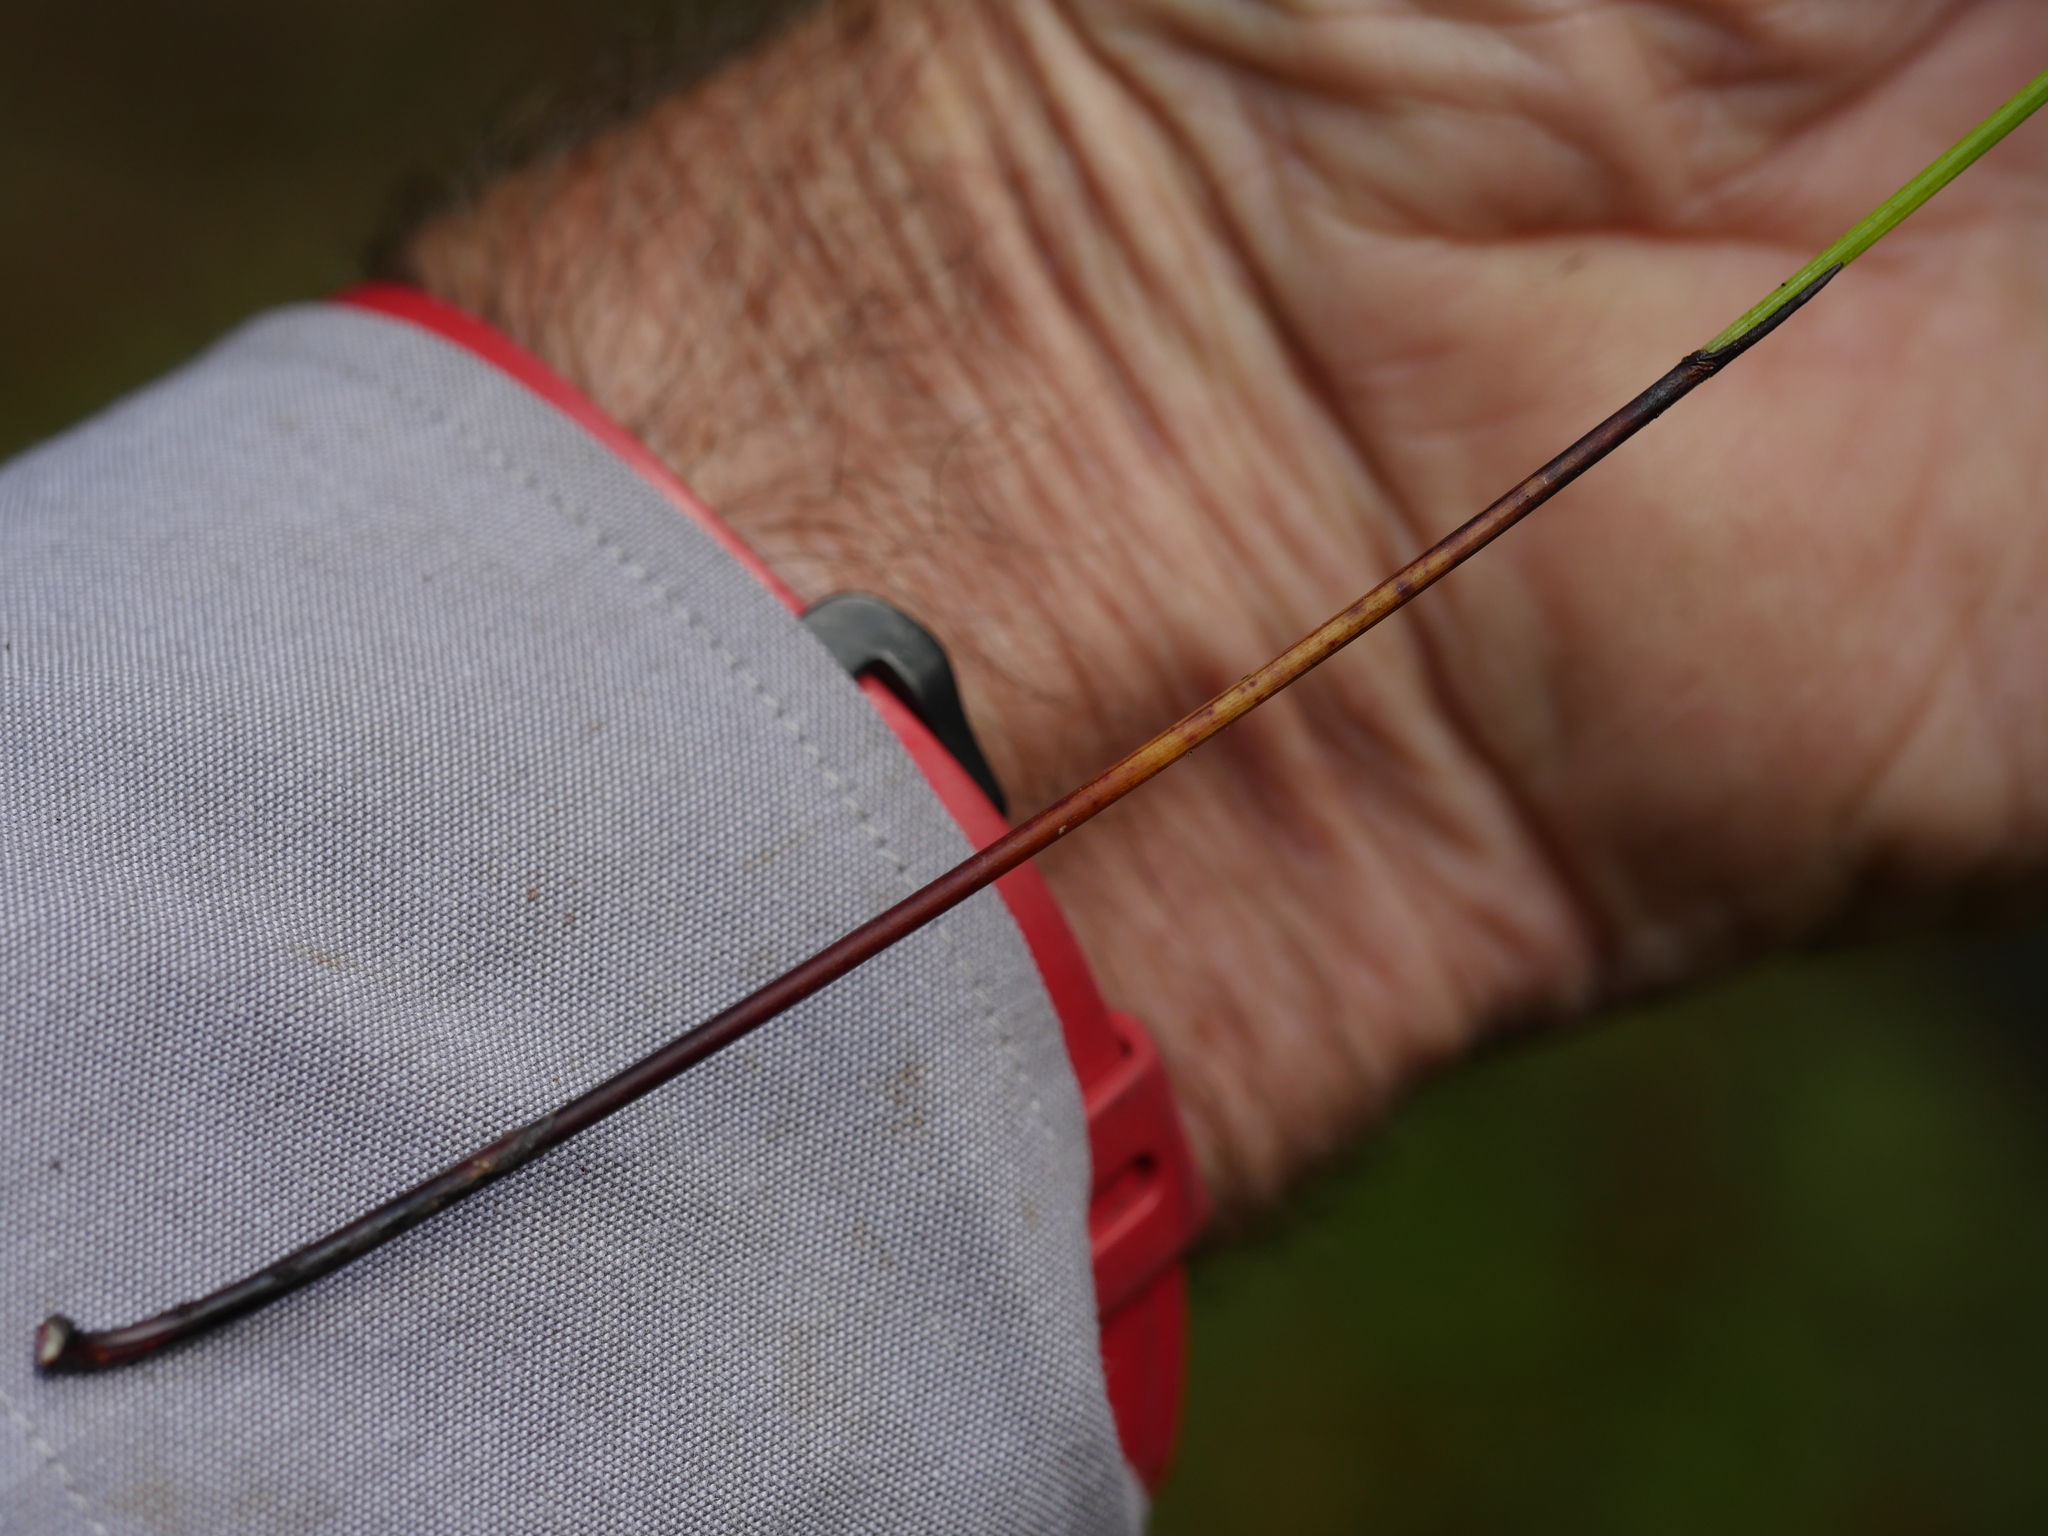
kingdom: Plantae
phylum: Tracheophyta
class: Liliopsida
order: Poales
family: Cyperaceae
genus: Schoenus
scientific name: Schoenus tendo
